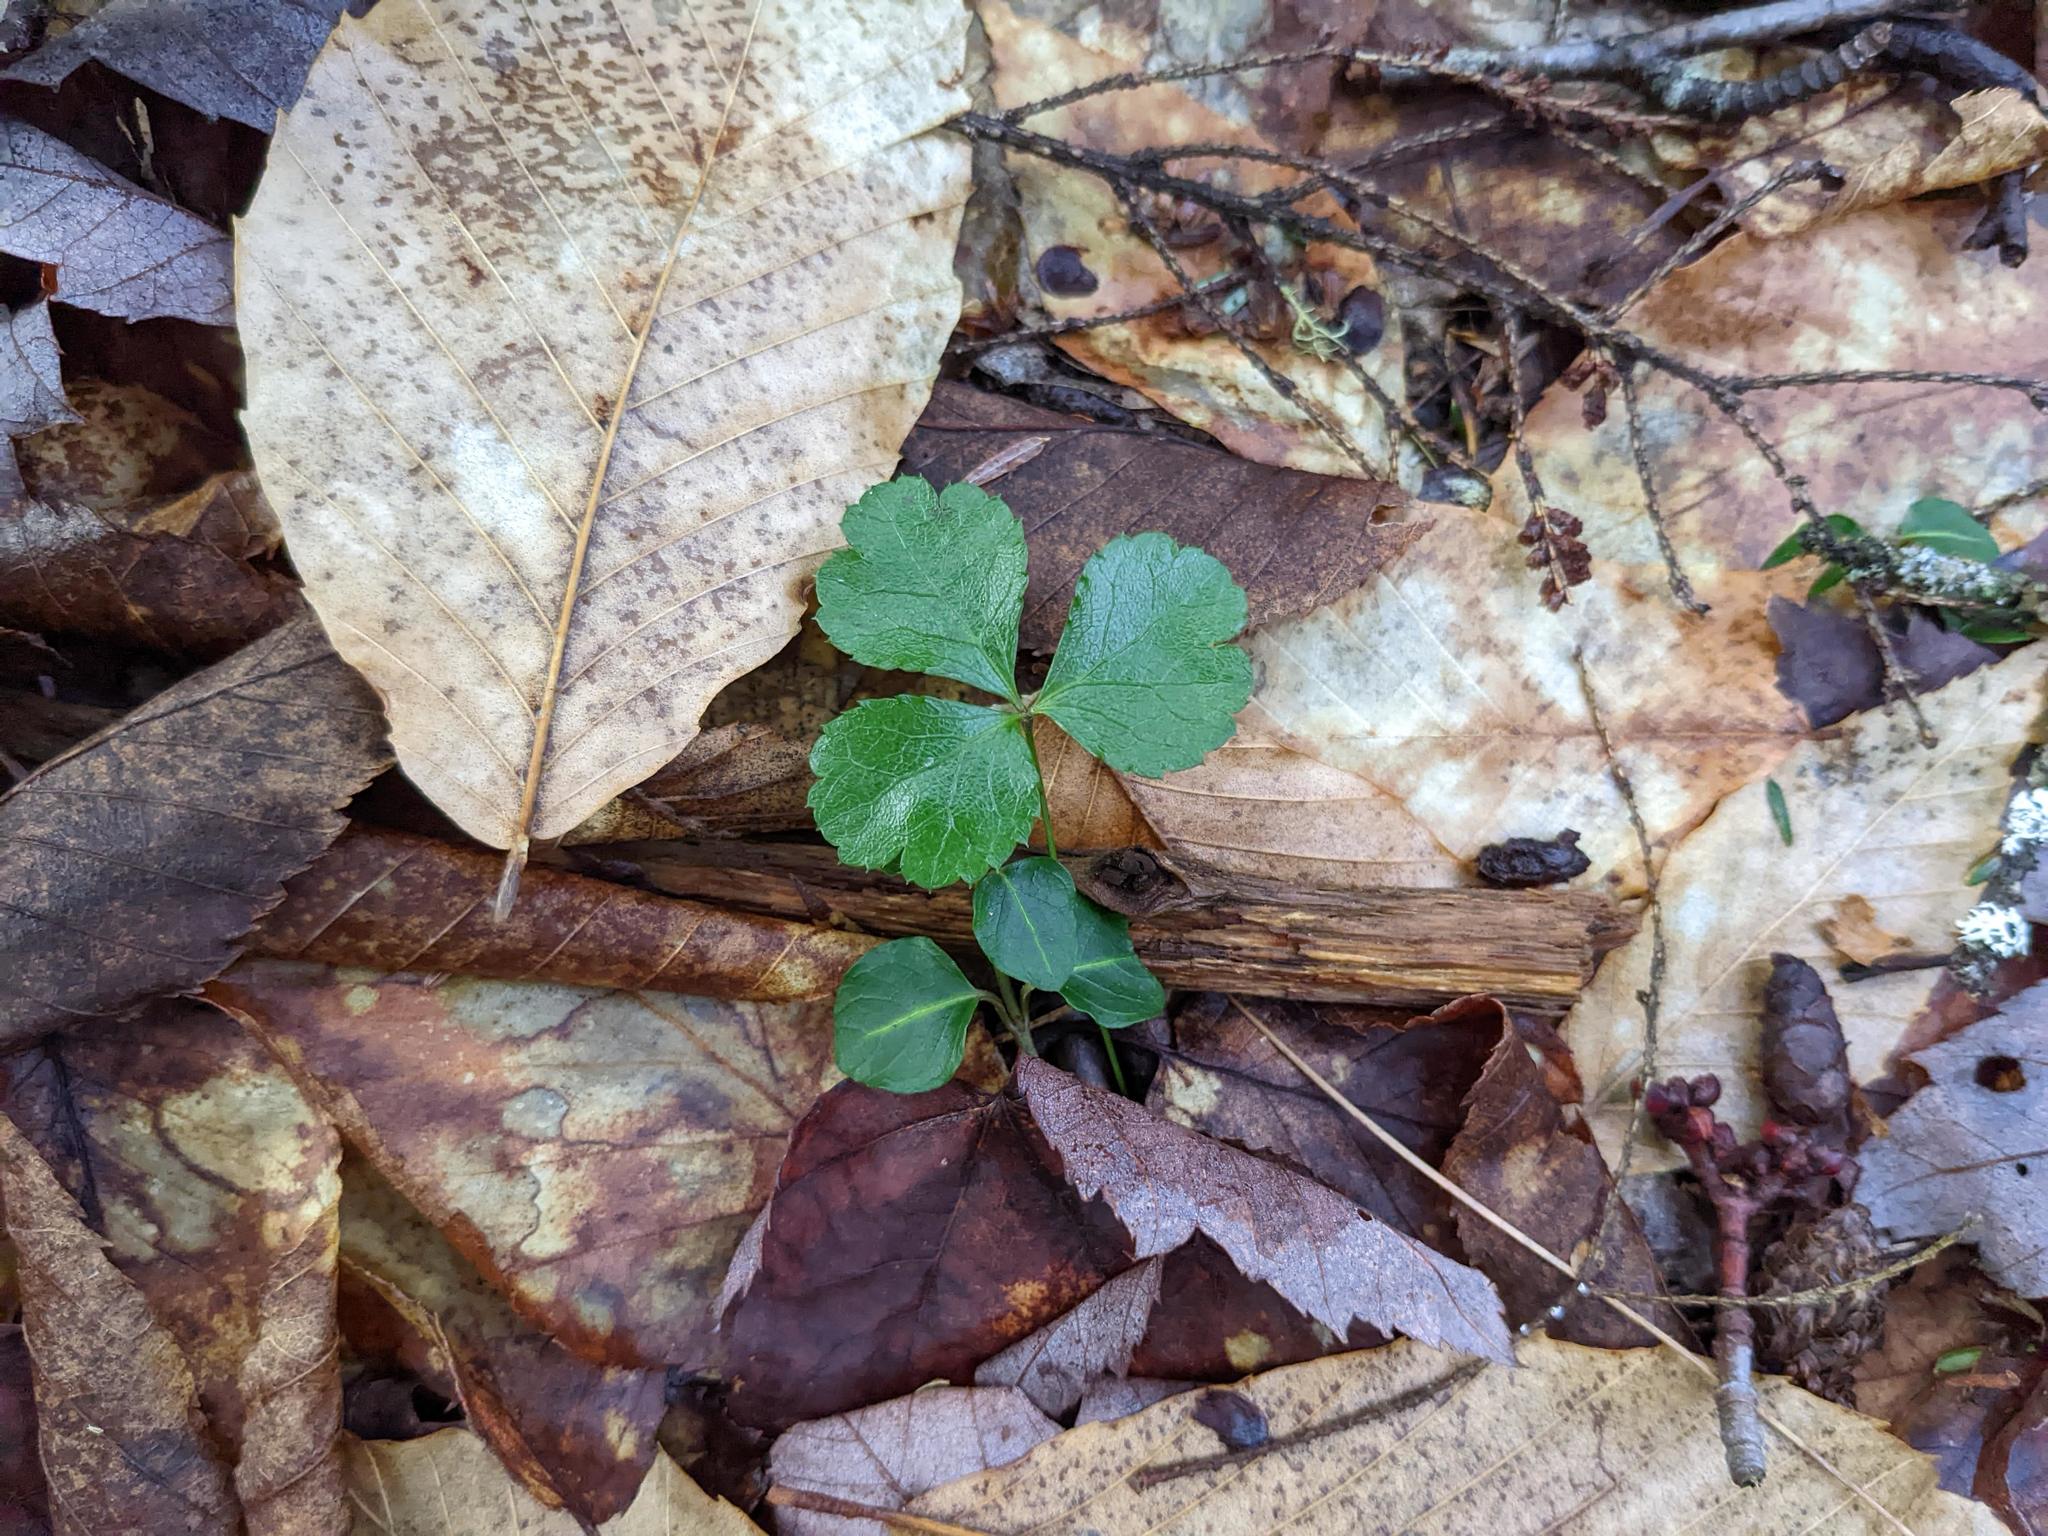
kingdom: Plantae
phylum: Tracheophyta
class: Magnoliopsida
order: Ranunculales
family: Ranunculaceae
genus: Coptis
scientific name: Coptis trifolia
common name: Canker-root
